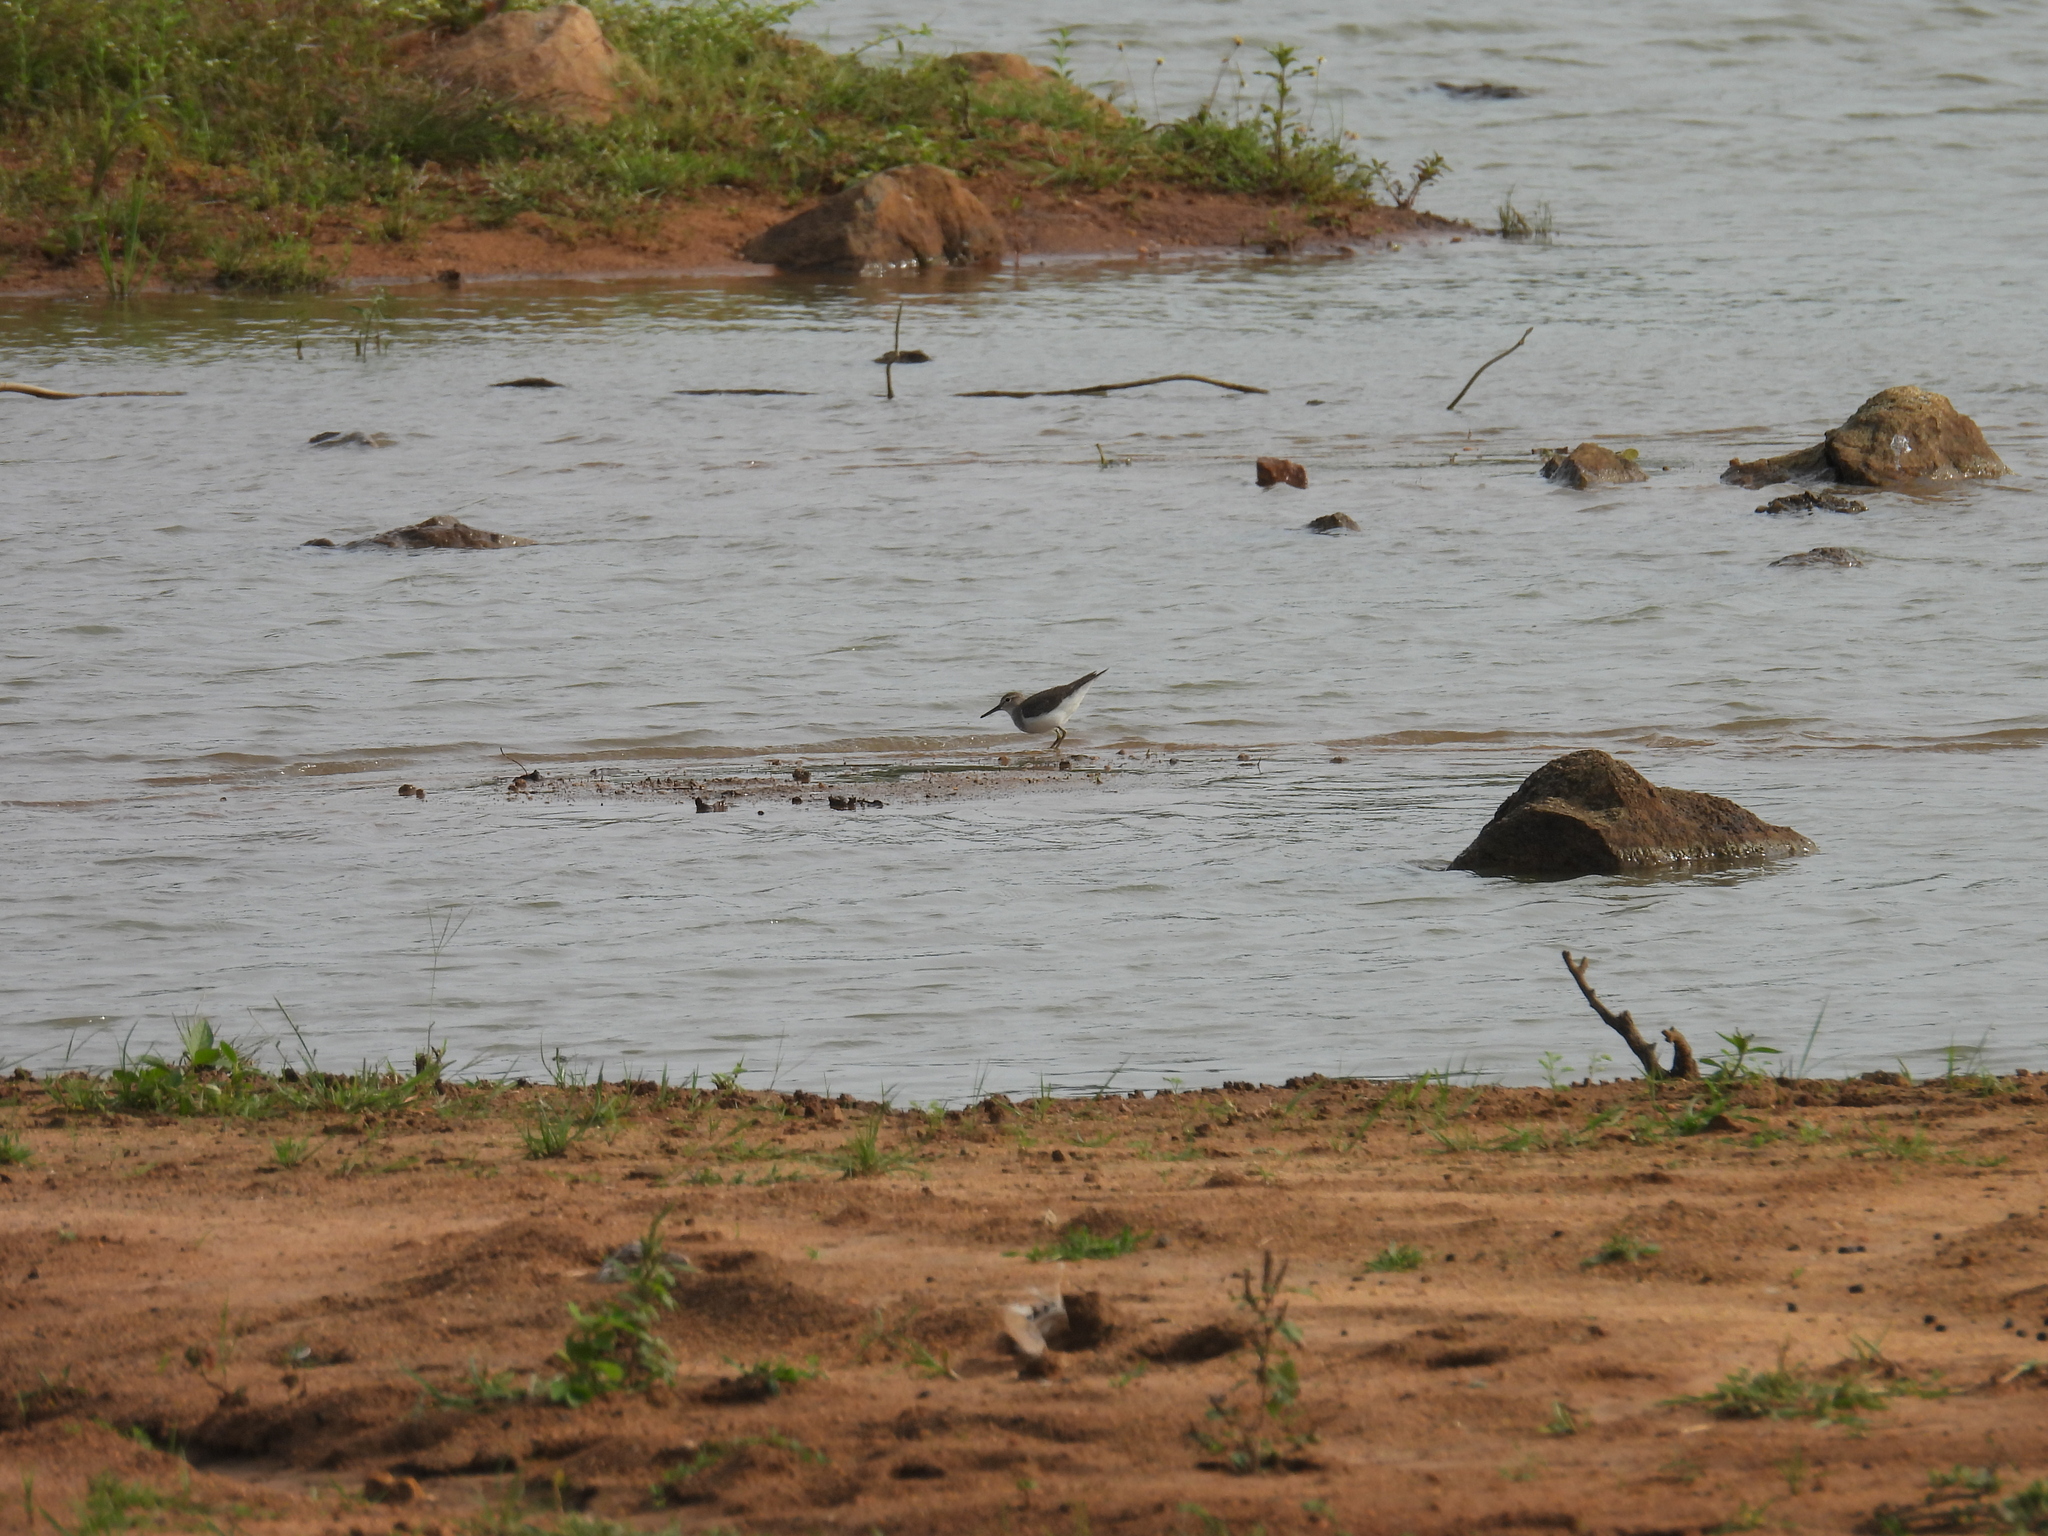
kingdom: Animalia
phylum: Chordata
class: Aves
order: Charadriiformes
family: Scolopacidae
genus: Actitis
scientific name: Actitis hypoleucos
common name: Common sandpiper
